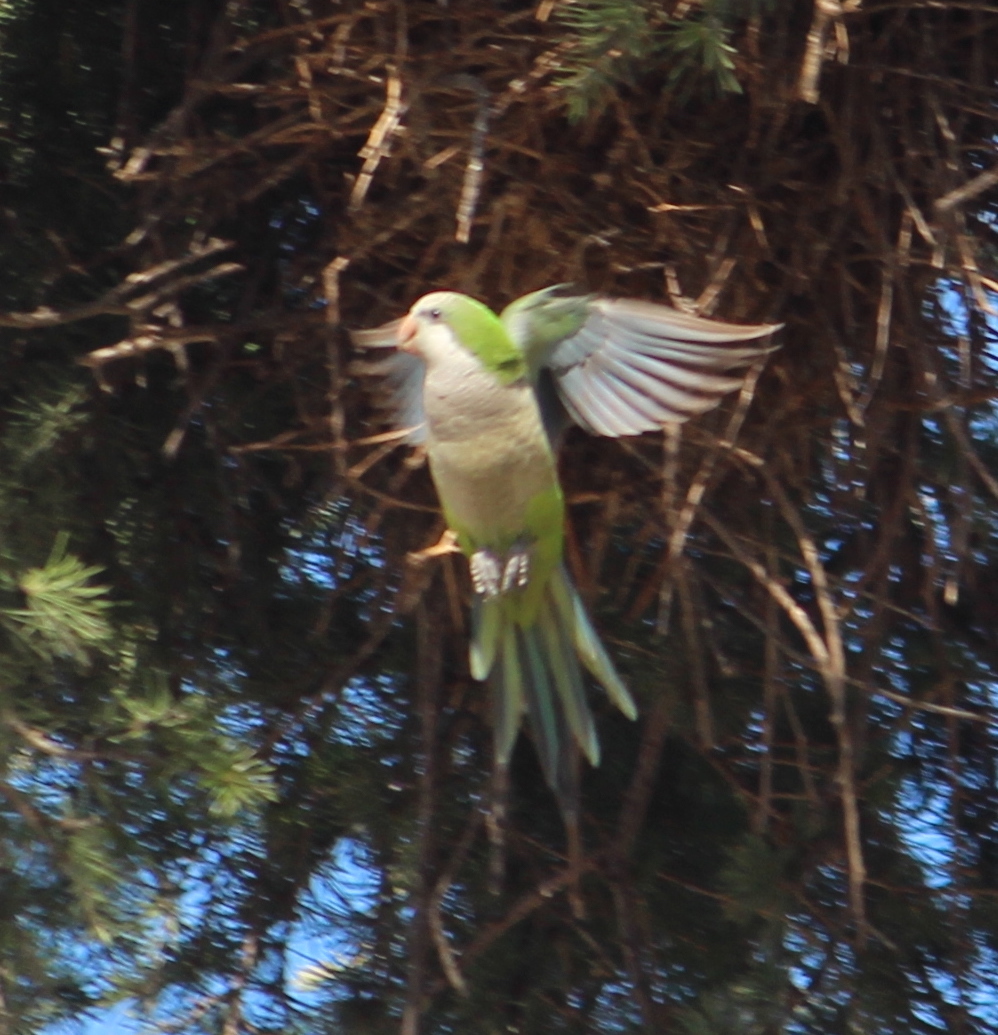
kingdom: Animalia
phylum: Chordata
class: Aves
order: Psittaciformes
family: Psittacidae
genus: Myiopsitta
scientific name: Myiopsitta monachus
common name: Monk parakeet
